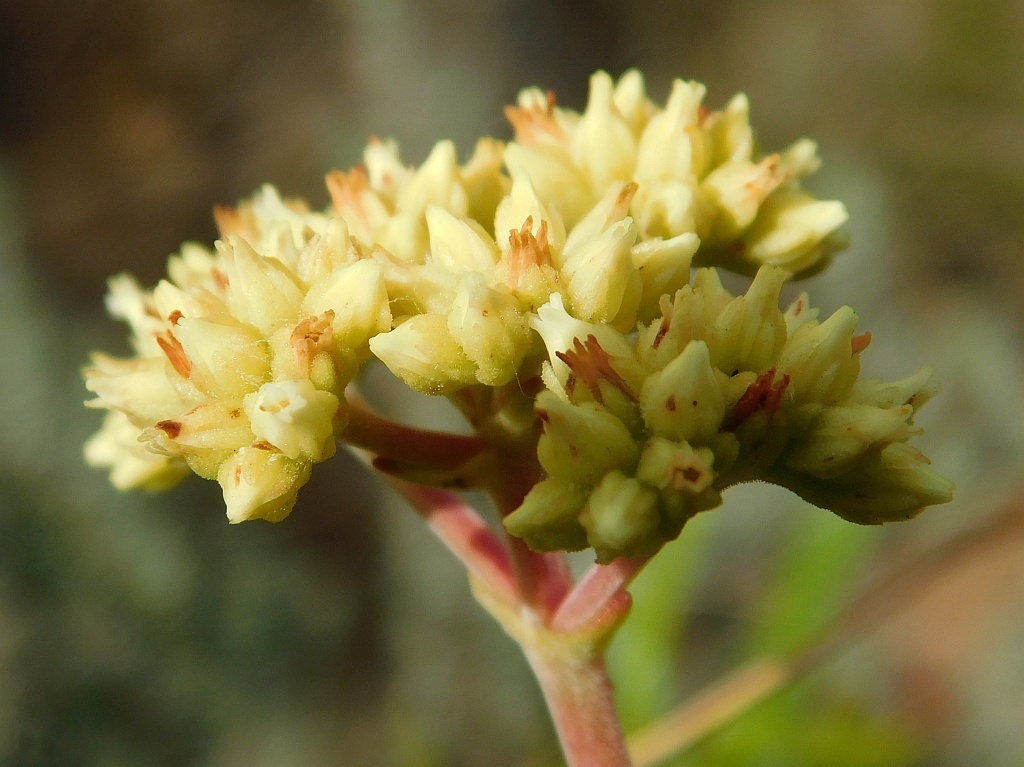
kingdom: Plantae
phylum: Tracheophyta
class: Magnoliopsida
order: Saxifragales
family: Crassulaceae
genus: Crassula
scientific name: Crassula atropurpurea
